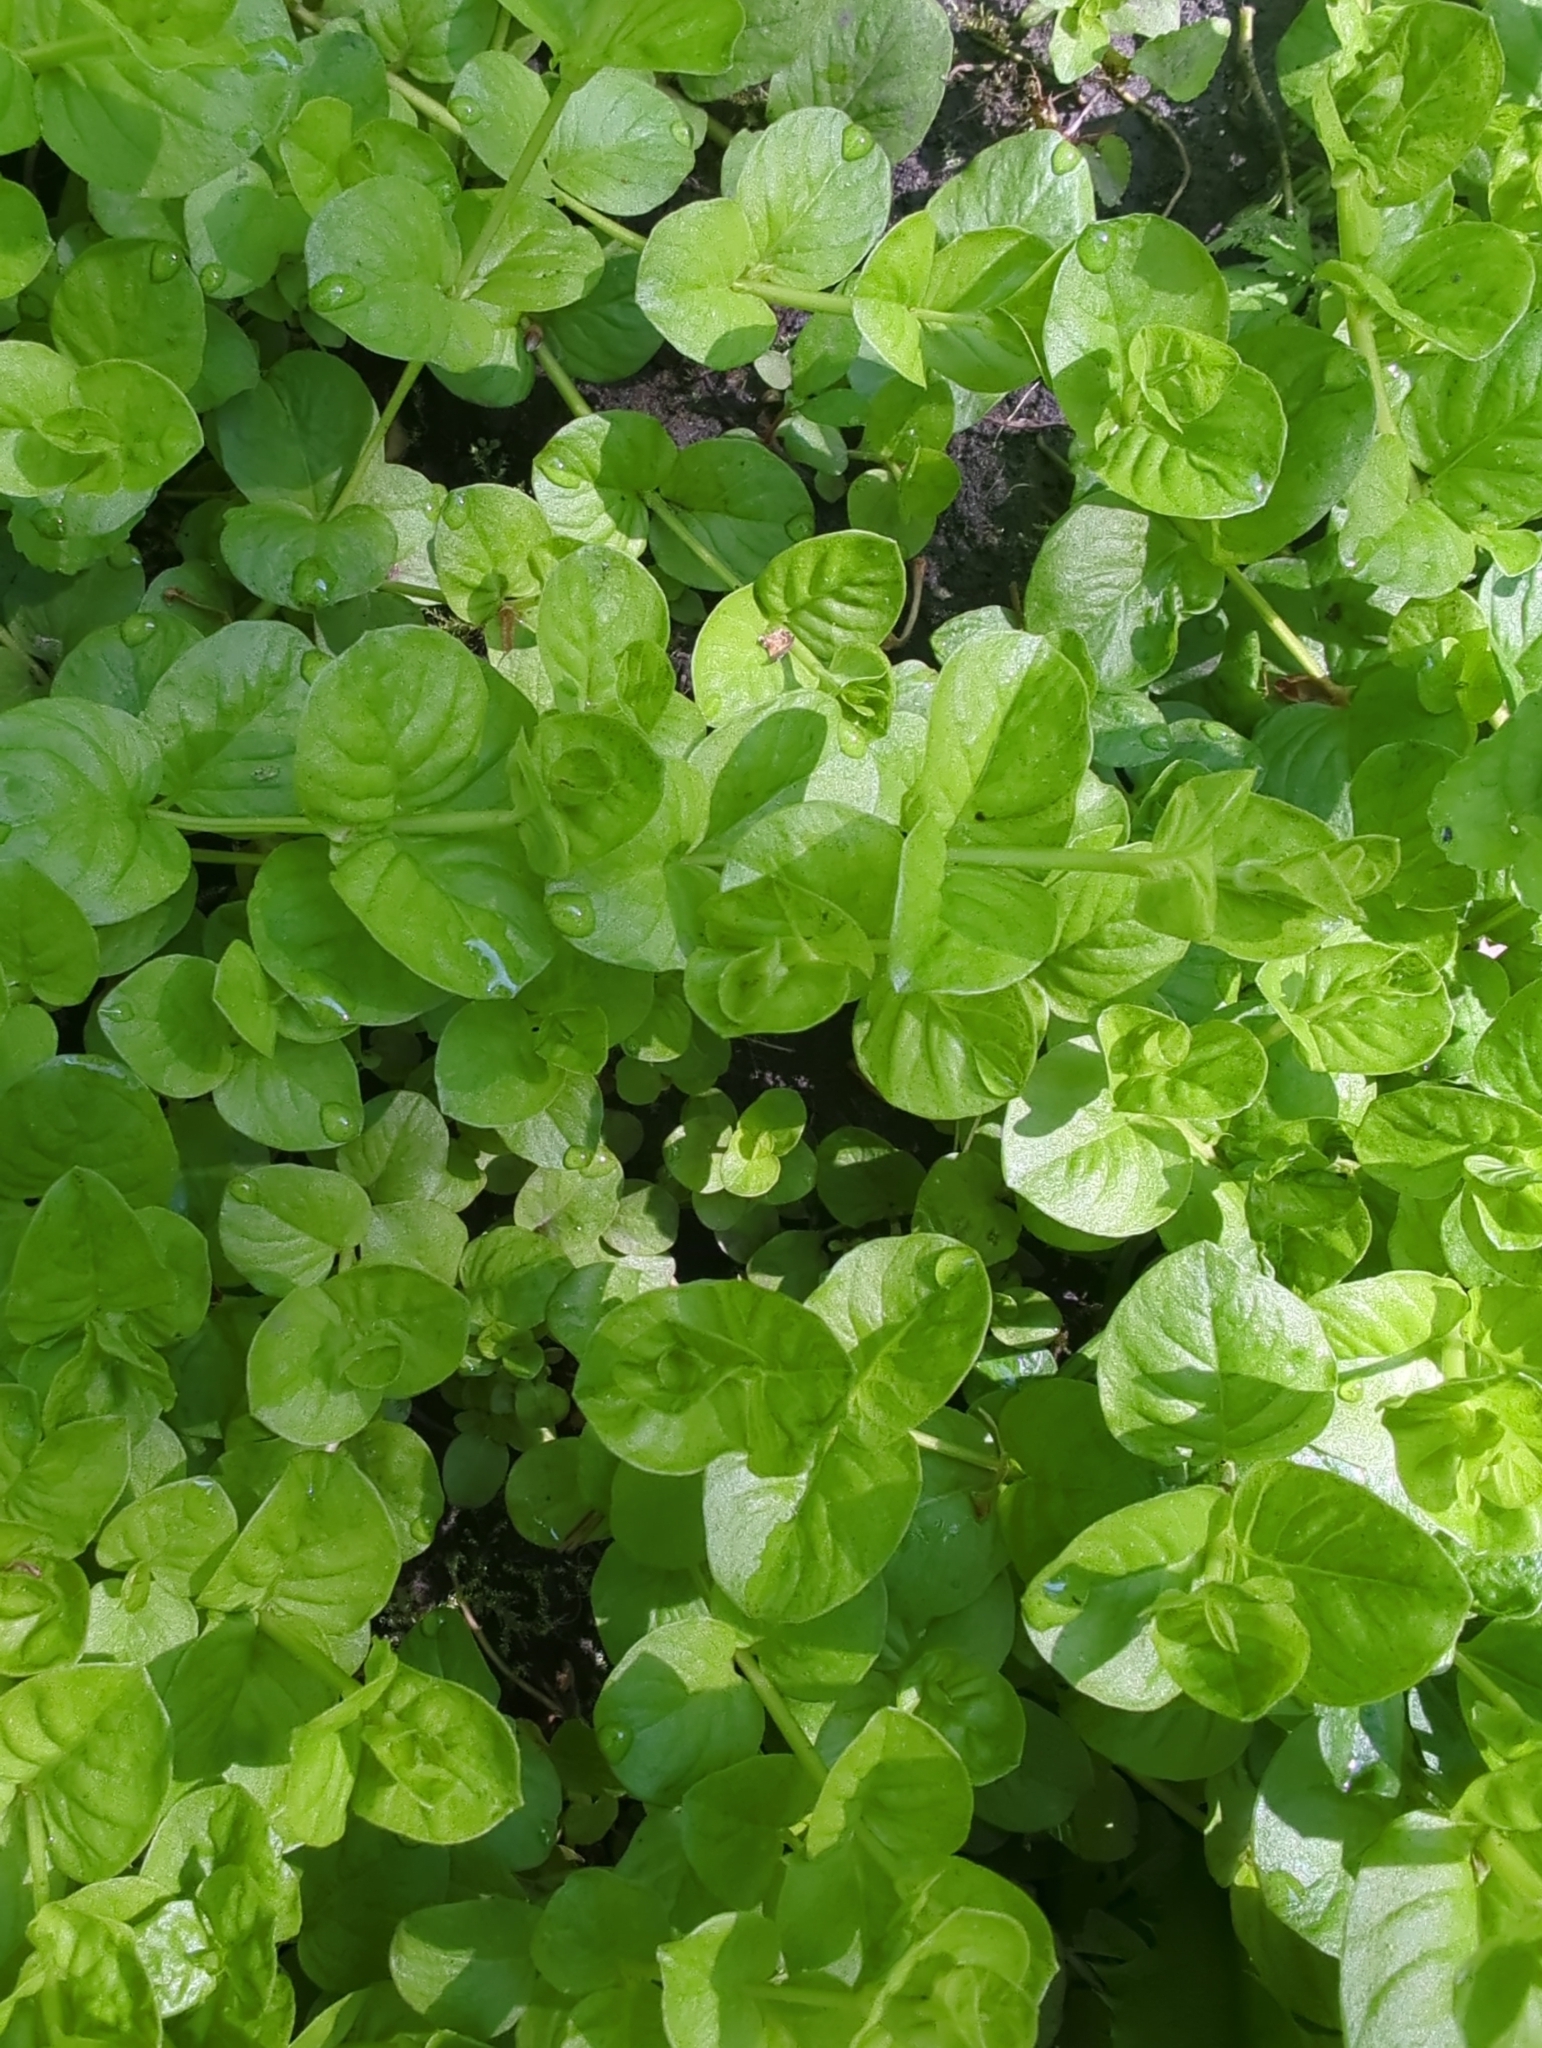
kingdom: Plantae
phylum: Tracheophyta
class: Magnoliopsida
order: Ericales
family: Primulaceae
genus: Lysimachia
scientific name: Lysimachia nummularia
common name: Moneywort
